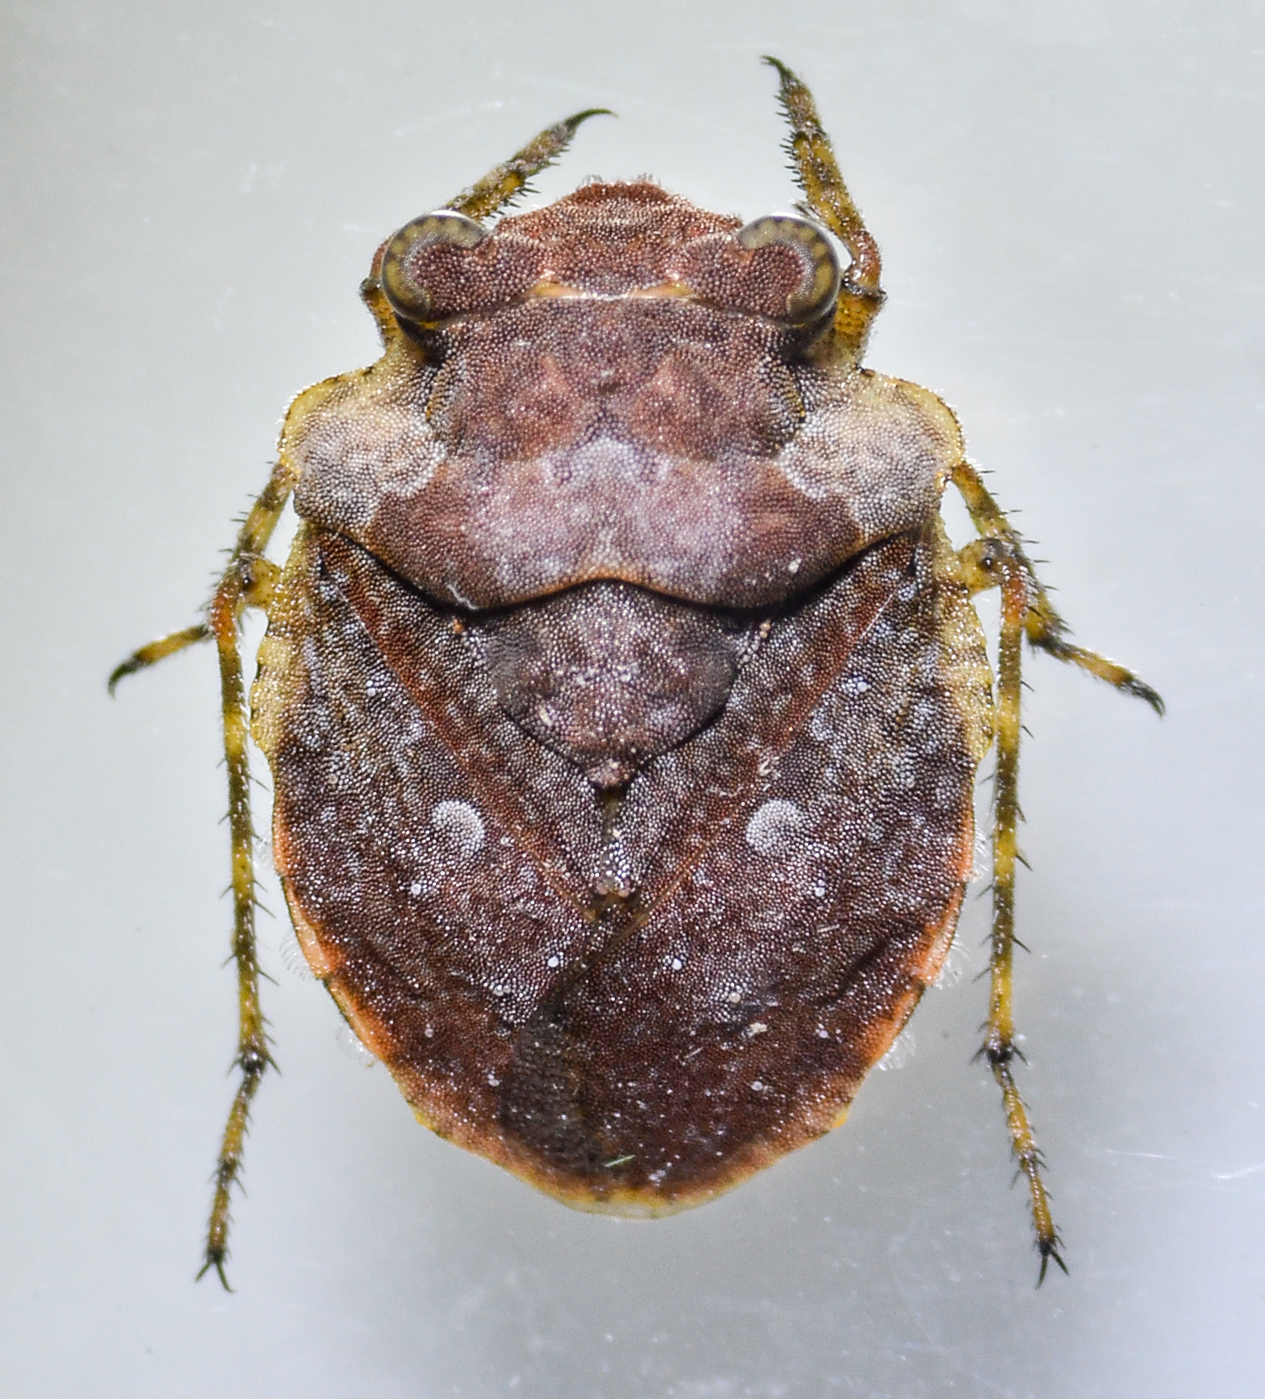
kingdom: Animalia
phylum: Arthropoda
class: Insecta
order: Hemiptera
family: Gelastocoridae
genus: Gelastocoris
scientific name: Gelastocoris oculatus
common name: Toad bug
